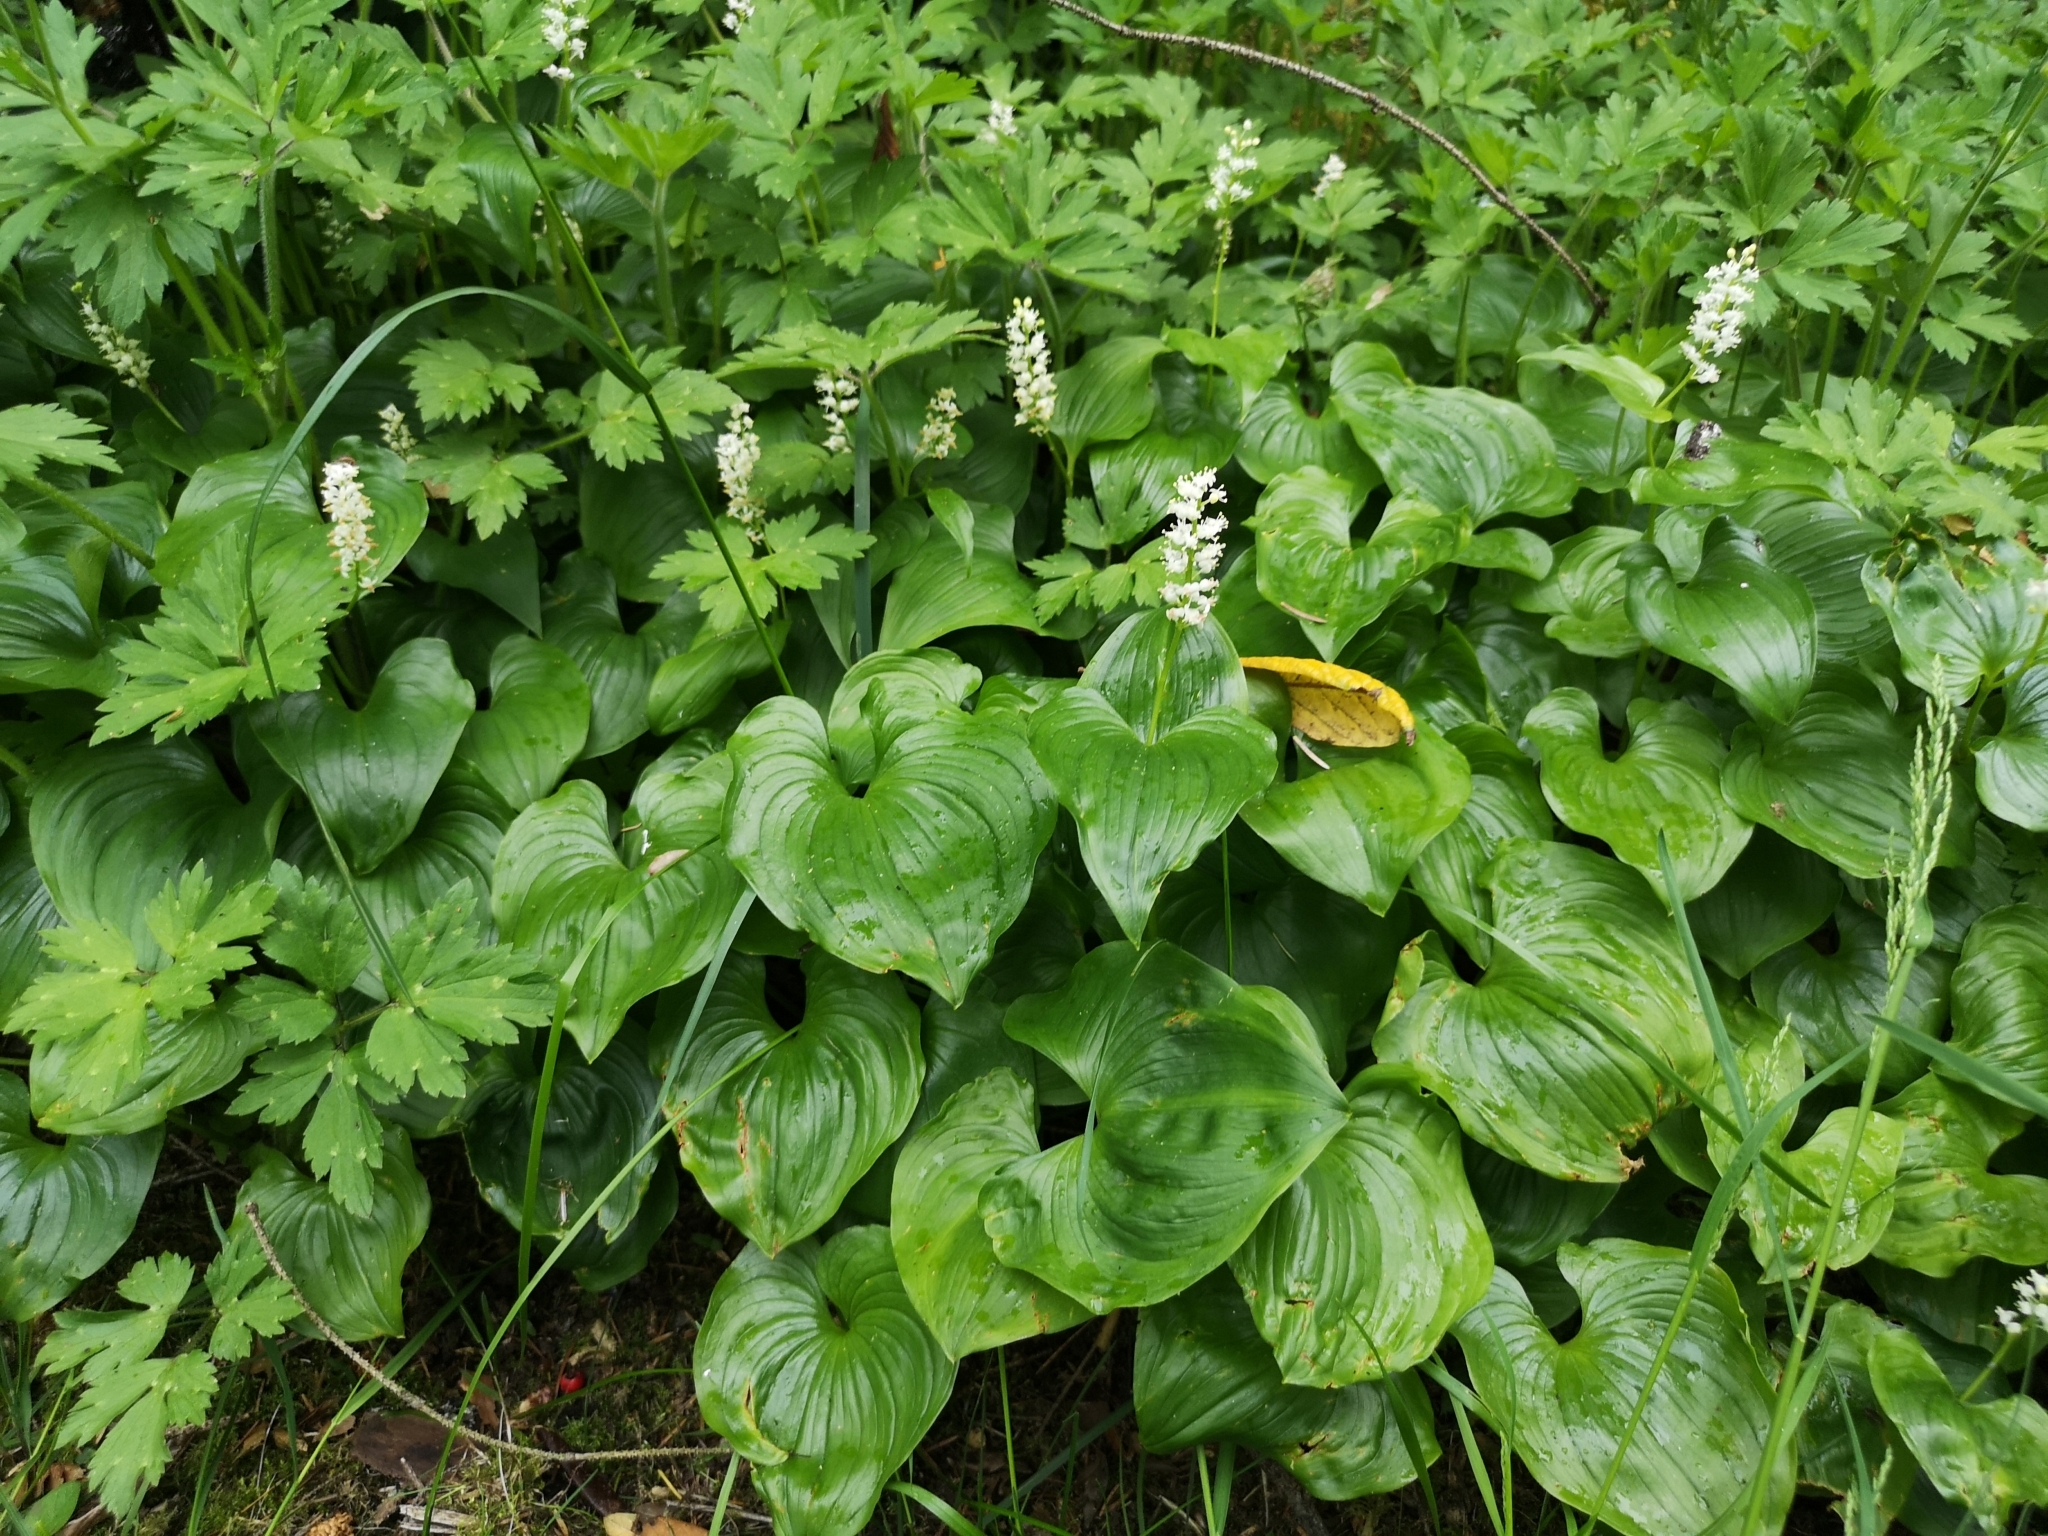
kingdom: Plantae
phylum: Tracheophyta
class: Liliopsida
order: Asparagales
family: Asparagaceae
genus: Maianthemum
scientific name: Maianthemum dilatatum
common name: False lily-of-the-valley
